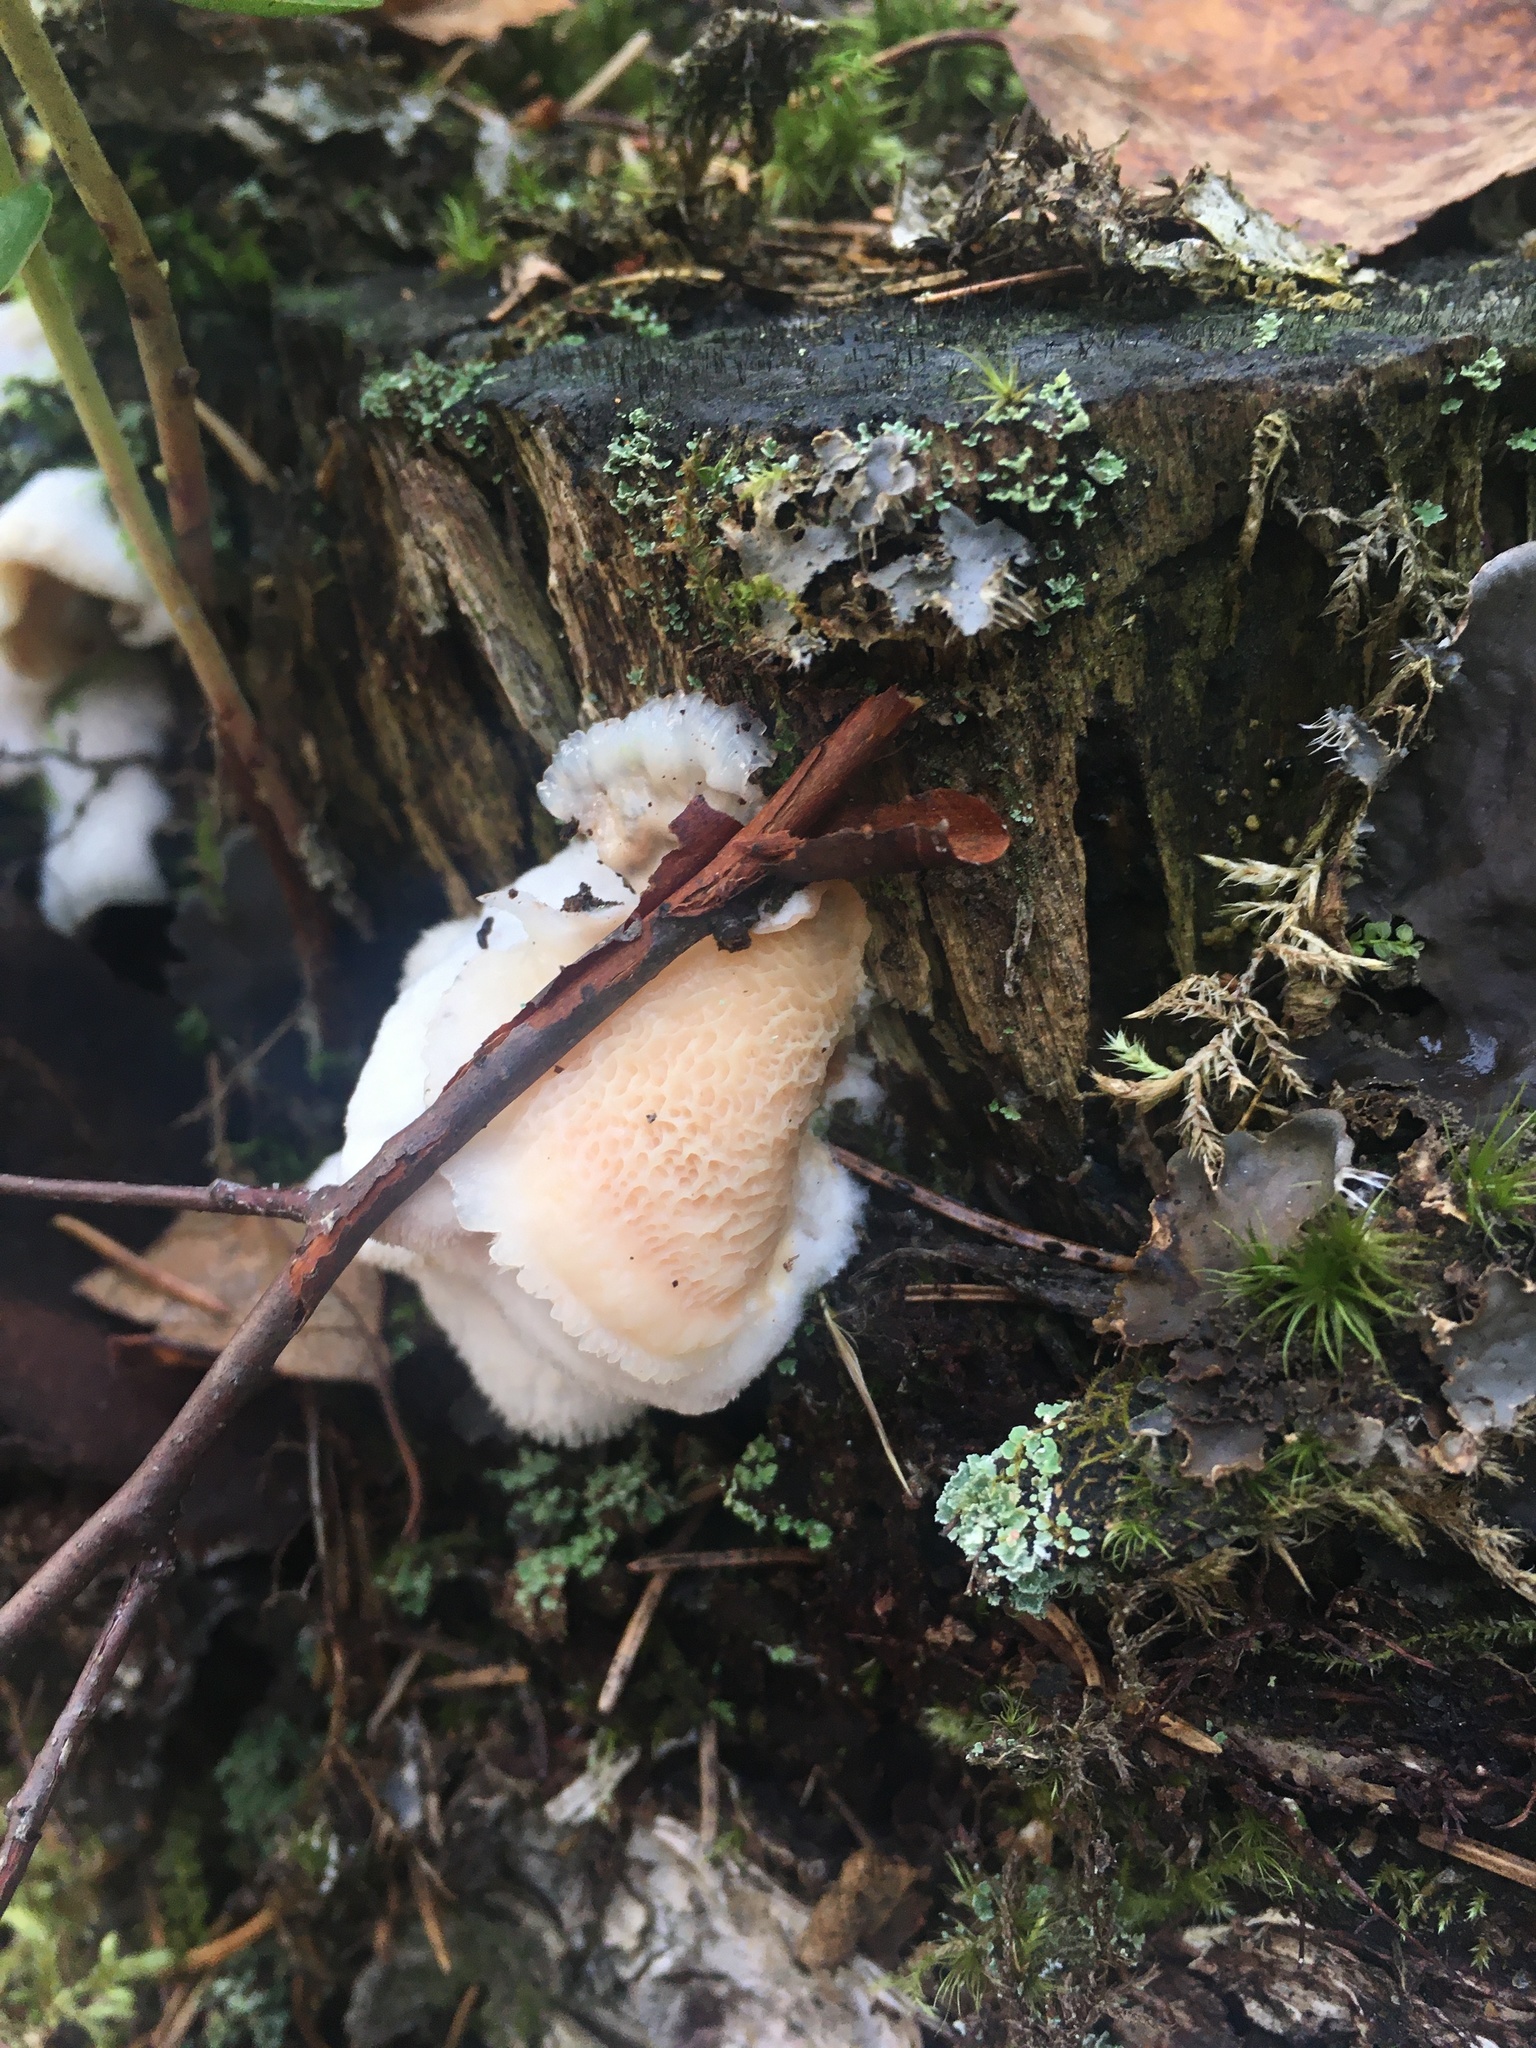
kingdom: Fungi
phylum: Basidiomycota
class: Agaricomycetes
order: Polyporales
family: Meruliaceae
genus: Phlebia
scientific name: Phlebia tremellosa
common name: Jelly rot
